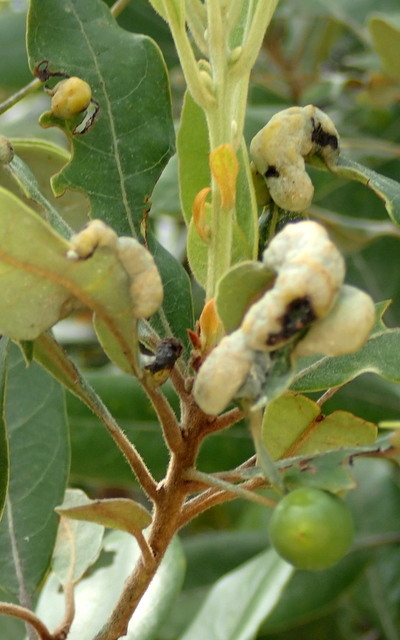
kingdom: Animalia
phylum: Arthropoda
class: Insecta
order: Hemiptera
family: Triozidae
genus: Trioza
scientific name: Trioza magnoliae
